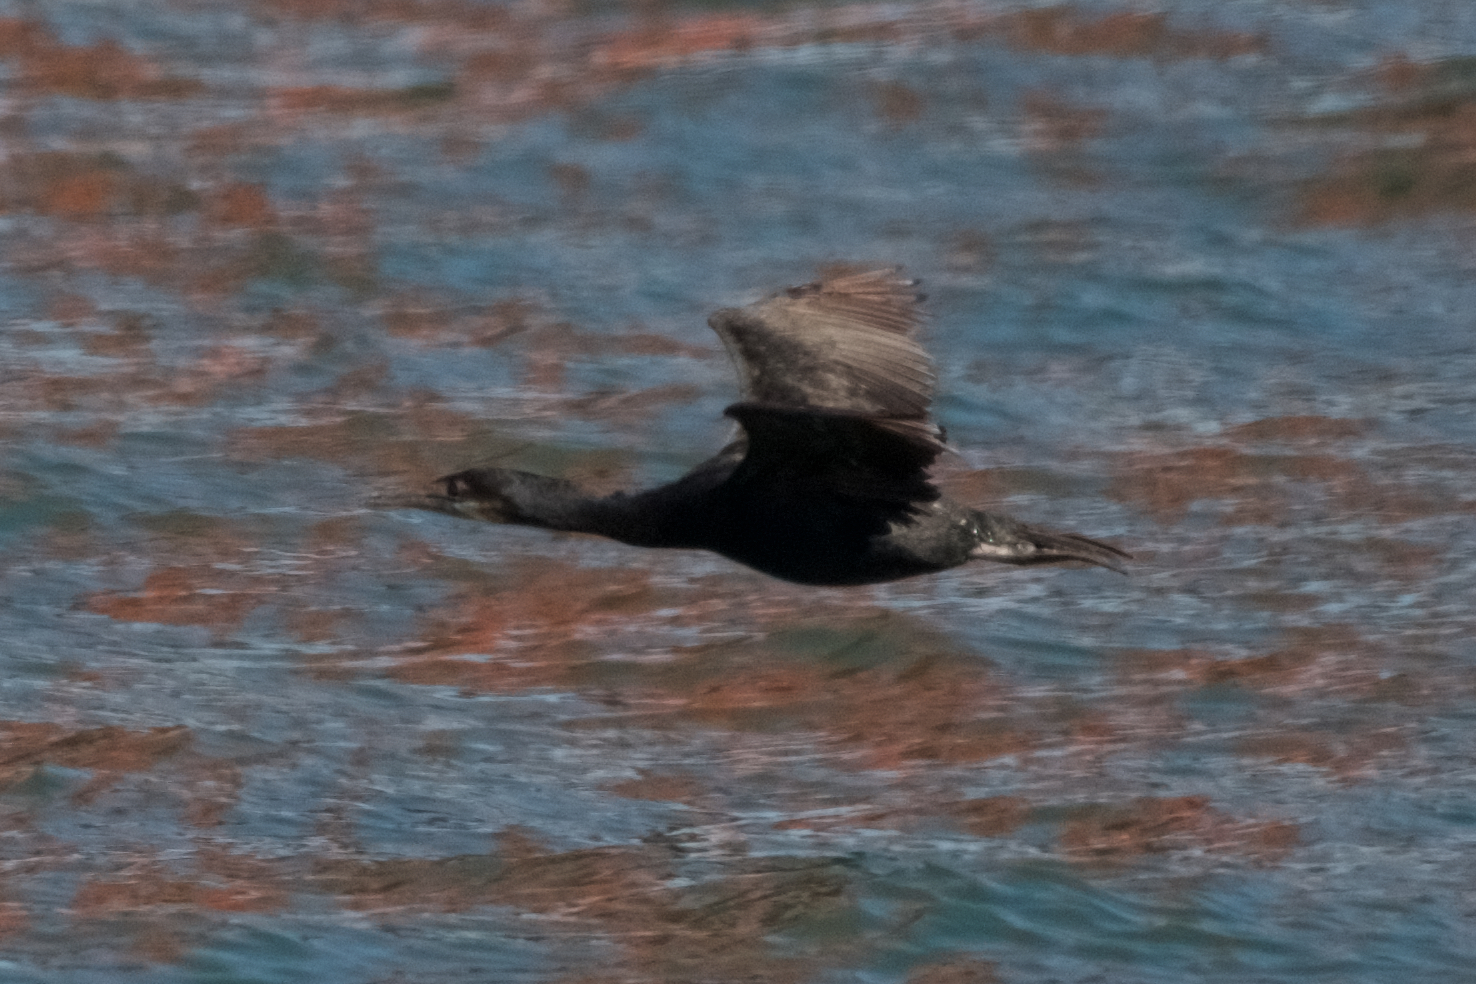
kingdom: Animalia
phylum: Chordata
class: Aves
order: Suliformes
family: Phalacrocoracidae
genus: Urile
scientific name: Urile penicillatus
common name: Brandt's cormorant
